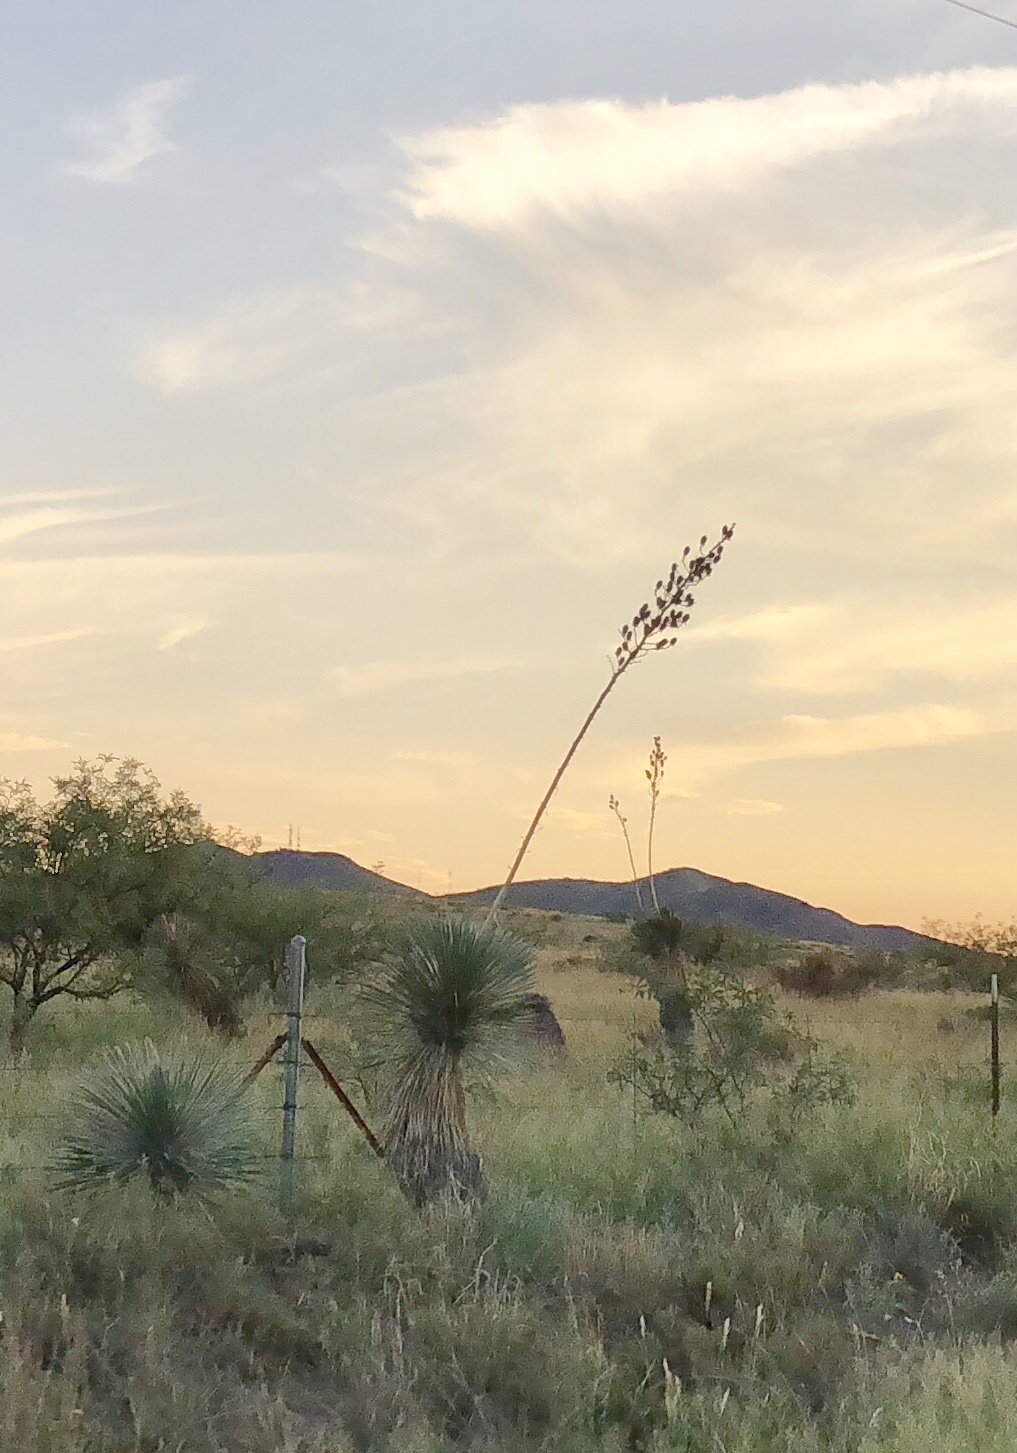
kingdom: Plantae
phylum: Tracheophyta
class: Liliopsida
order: Asparagales
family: Asparagaceae
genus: Yucca
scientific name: Yucca elata
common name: Palmella
